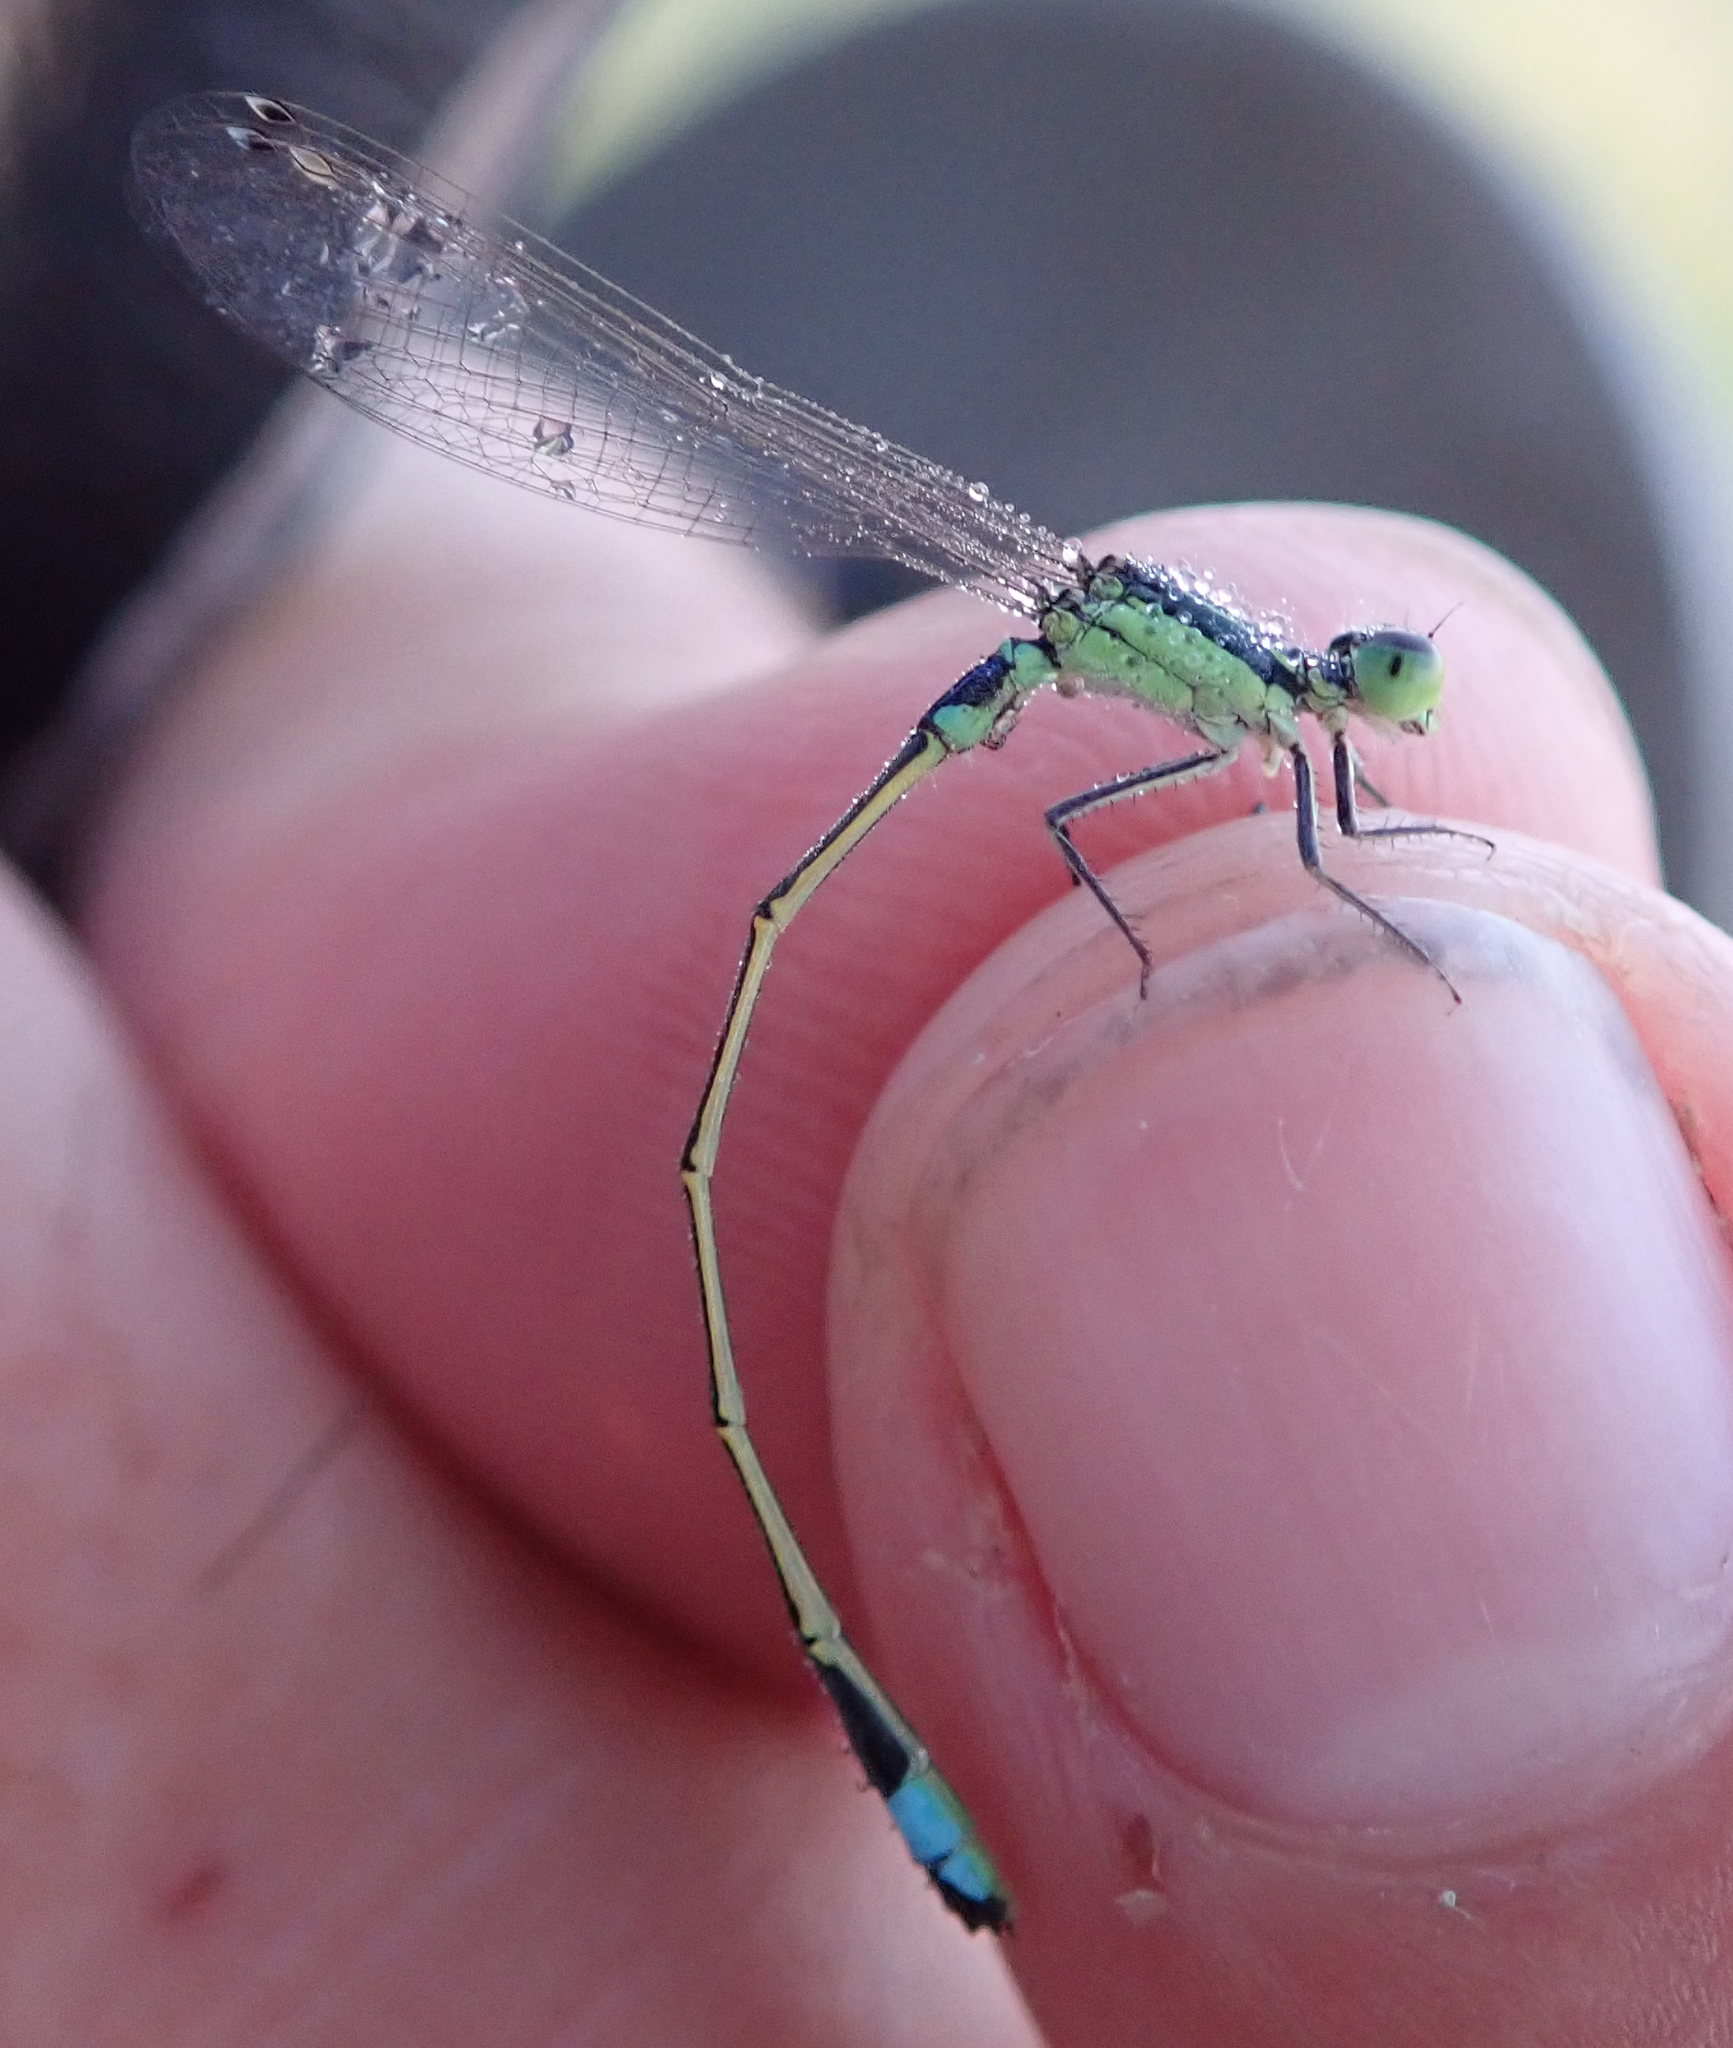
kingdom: Animalia
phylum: Arthropoda
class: Insecta
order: Odonata
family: Coenagrionidae
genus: Ischnura
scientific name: Ischnura senegalensis
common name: Tropical bluetail
